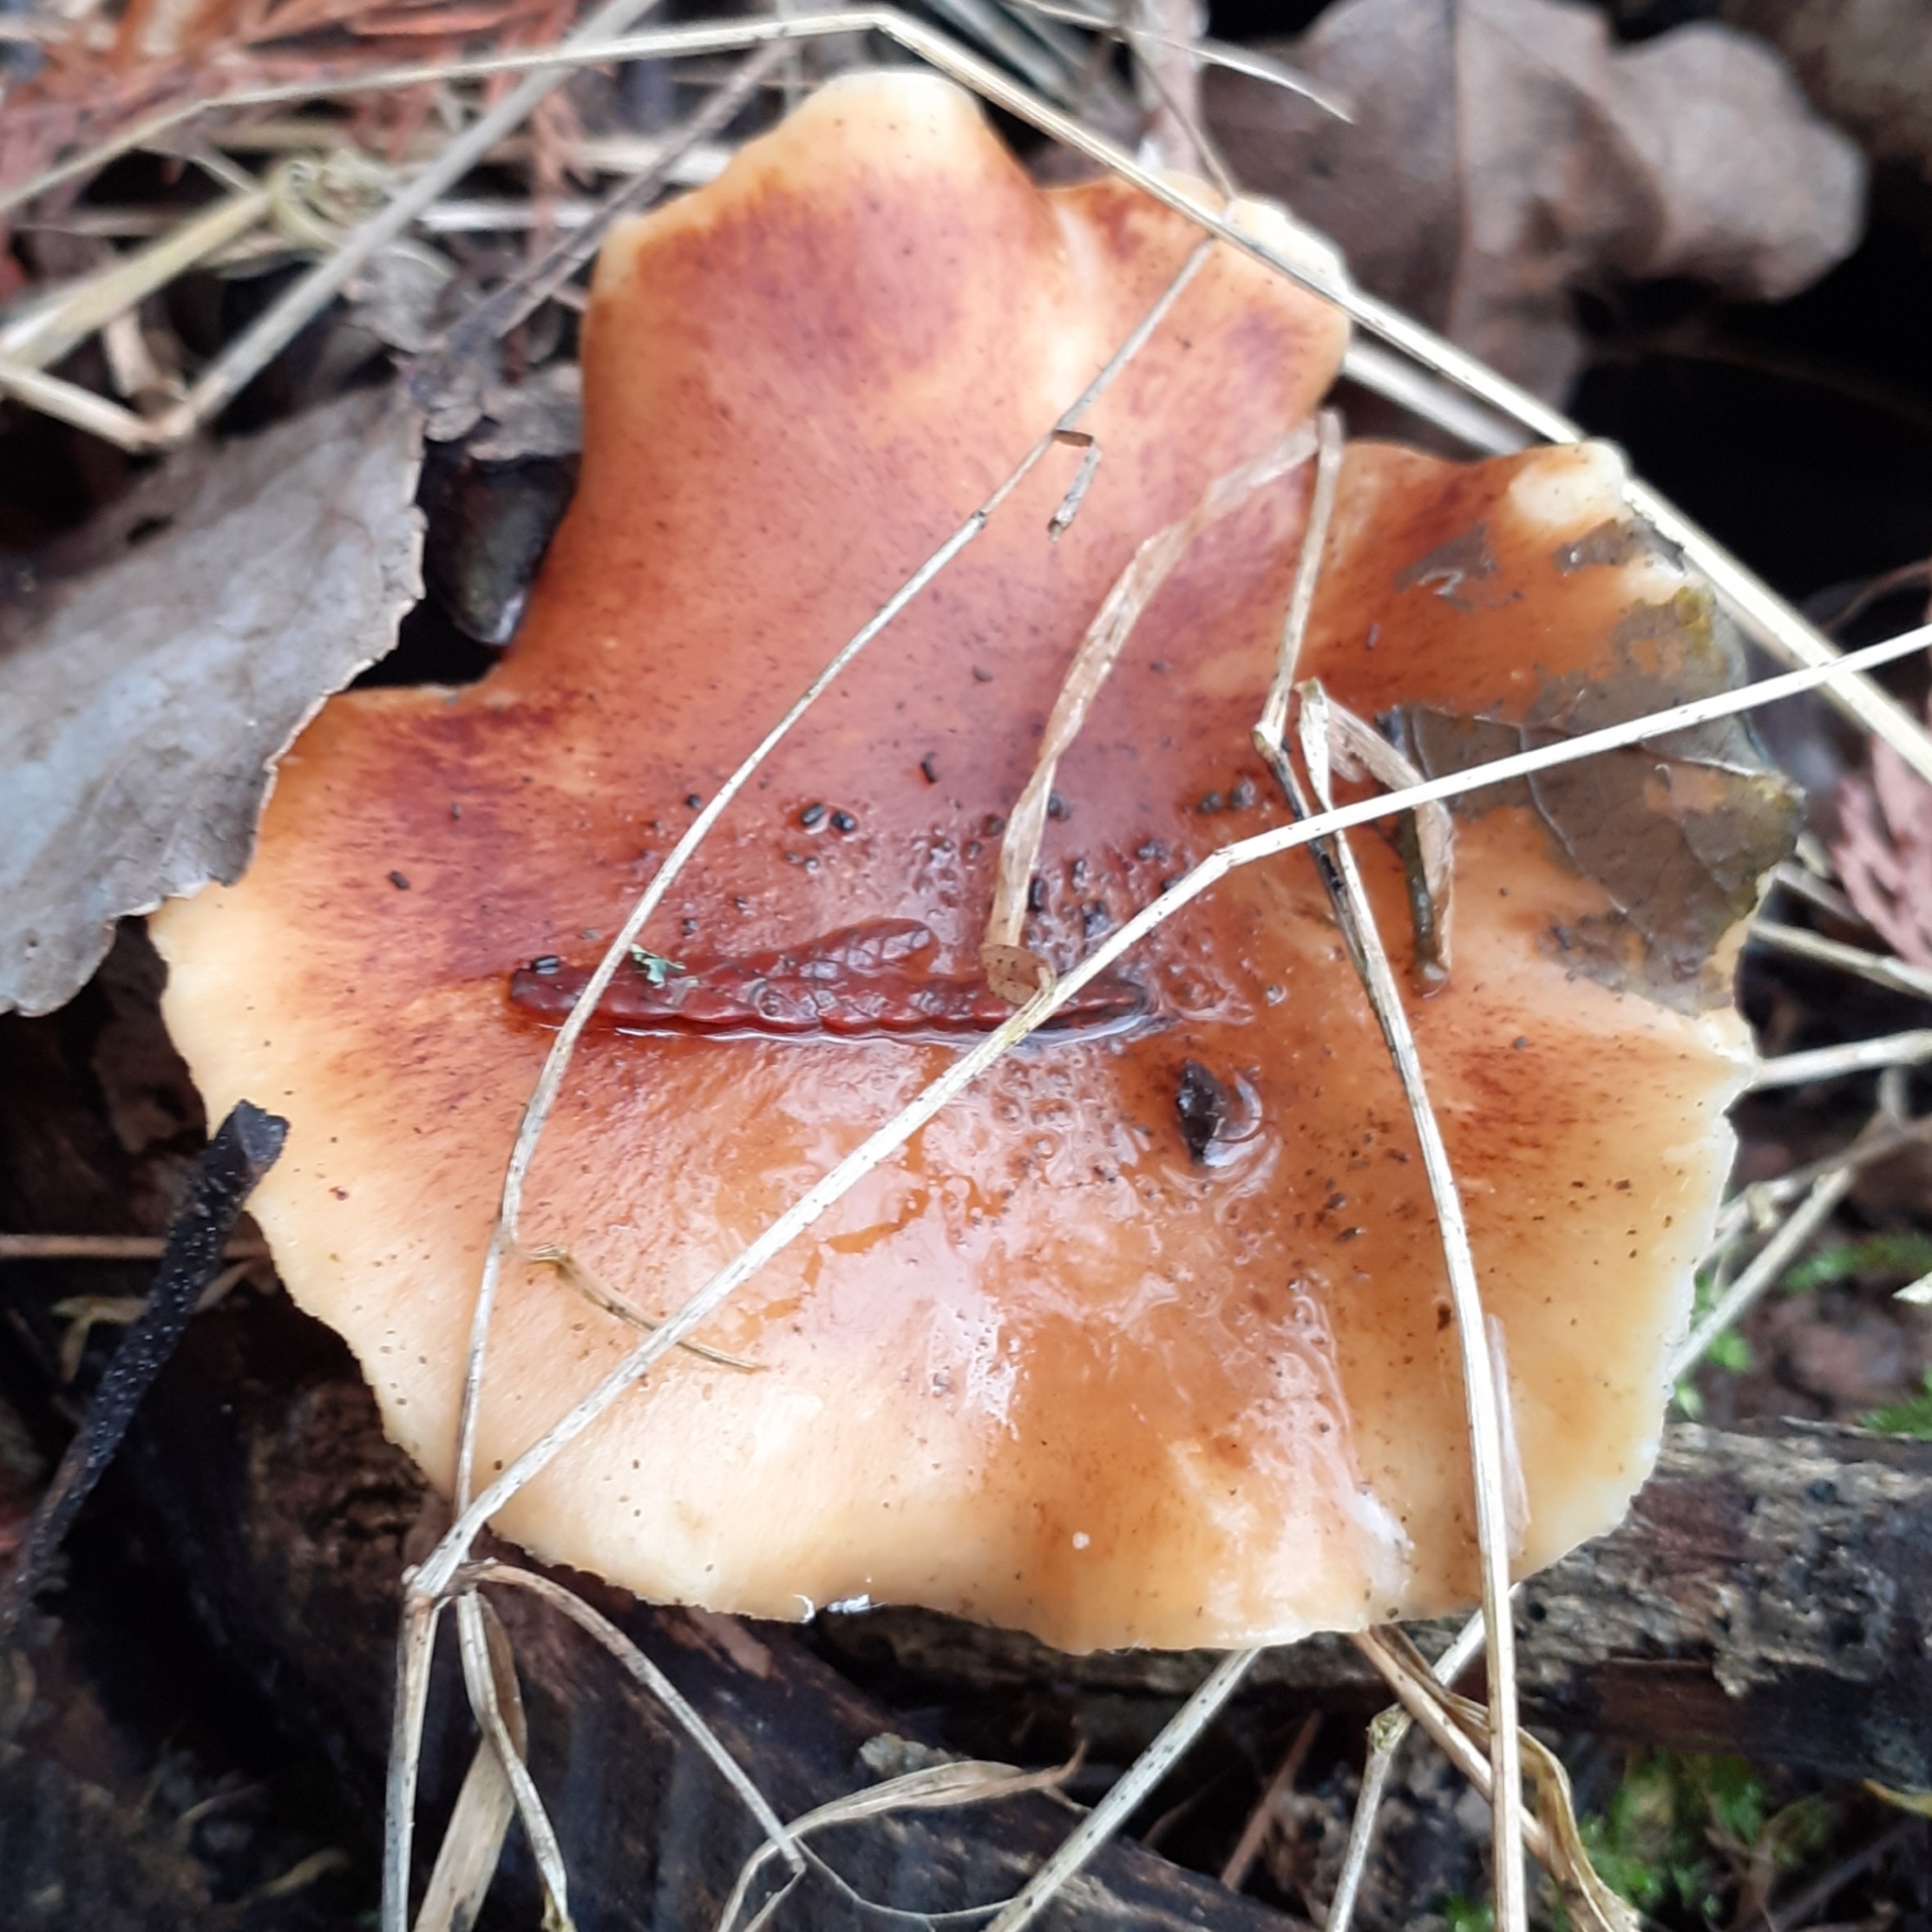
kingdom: Fungi
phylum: Basidiomycota
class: Agaricomycetes
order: Polyporales
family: Polyporaceae
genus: Picipes
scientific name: Picipes badius
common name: Bay polypore
